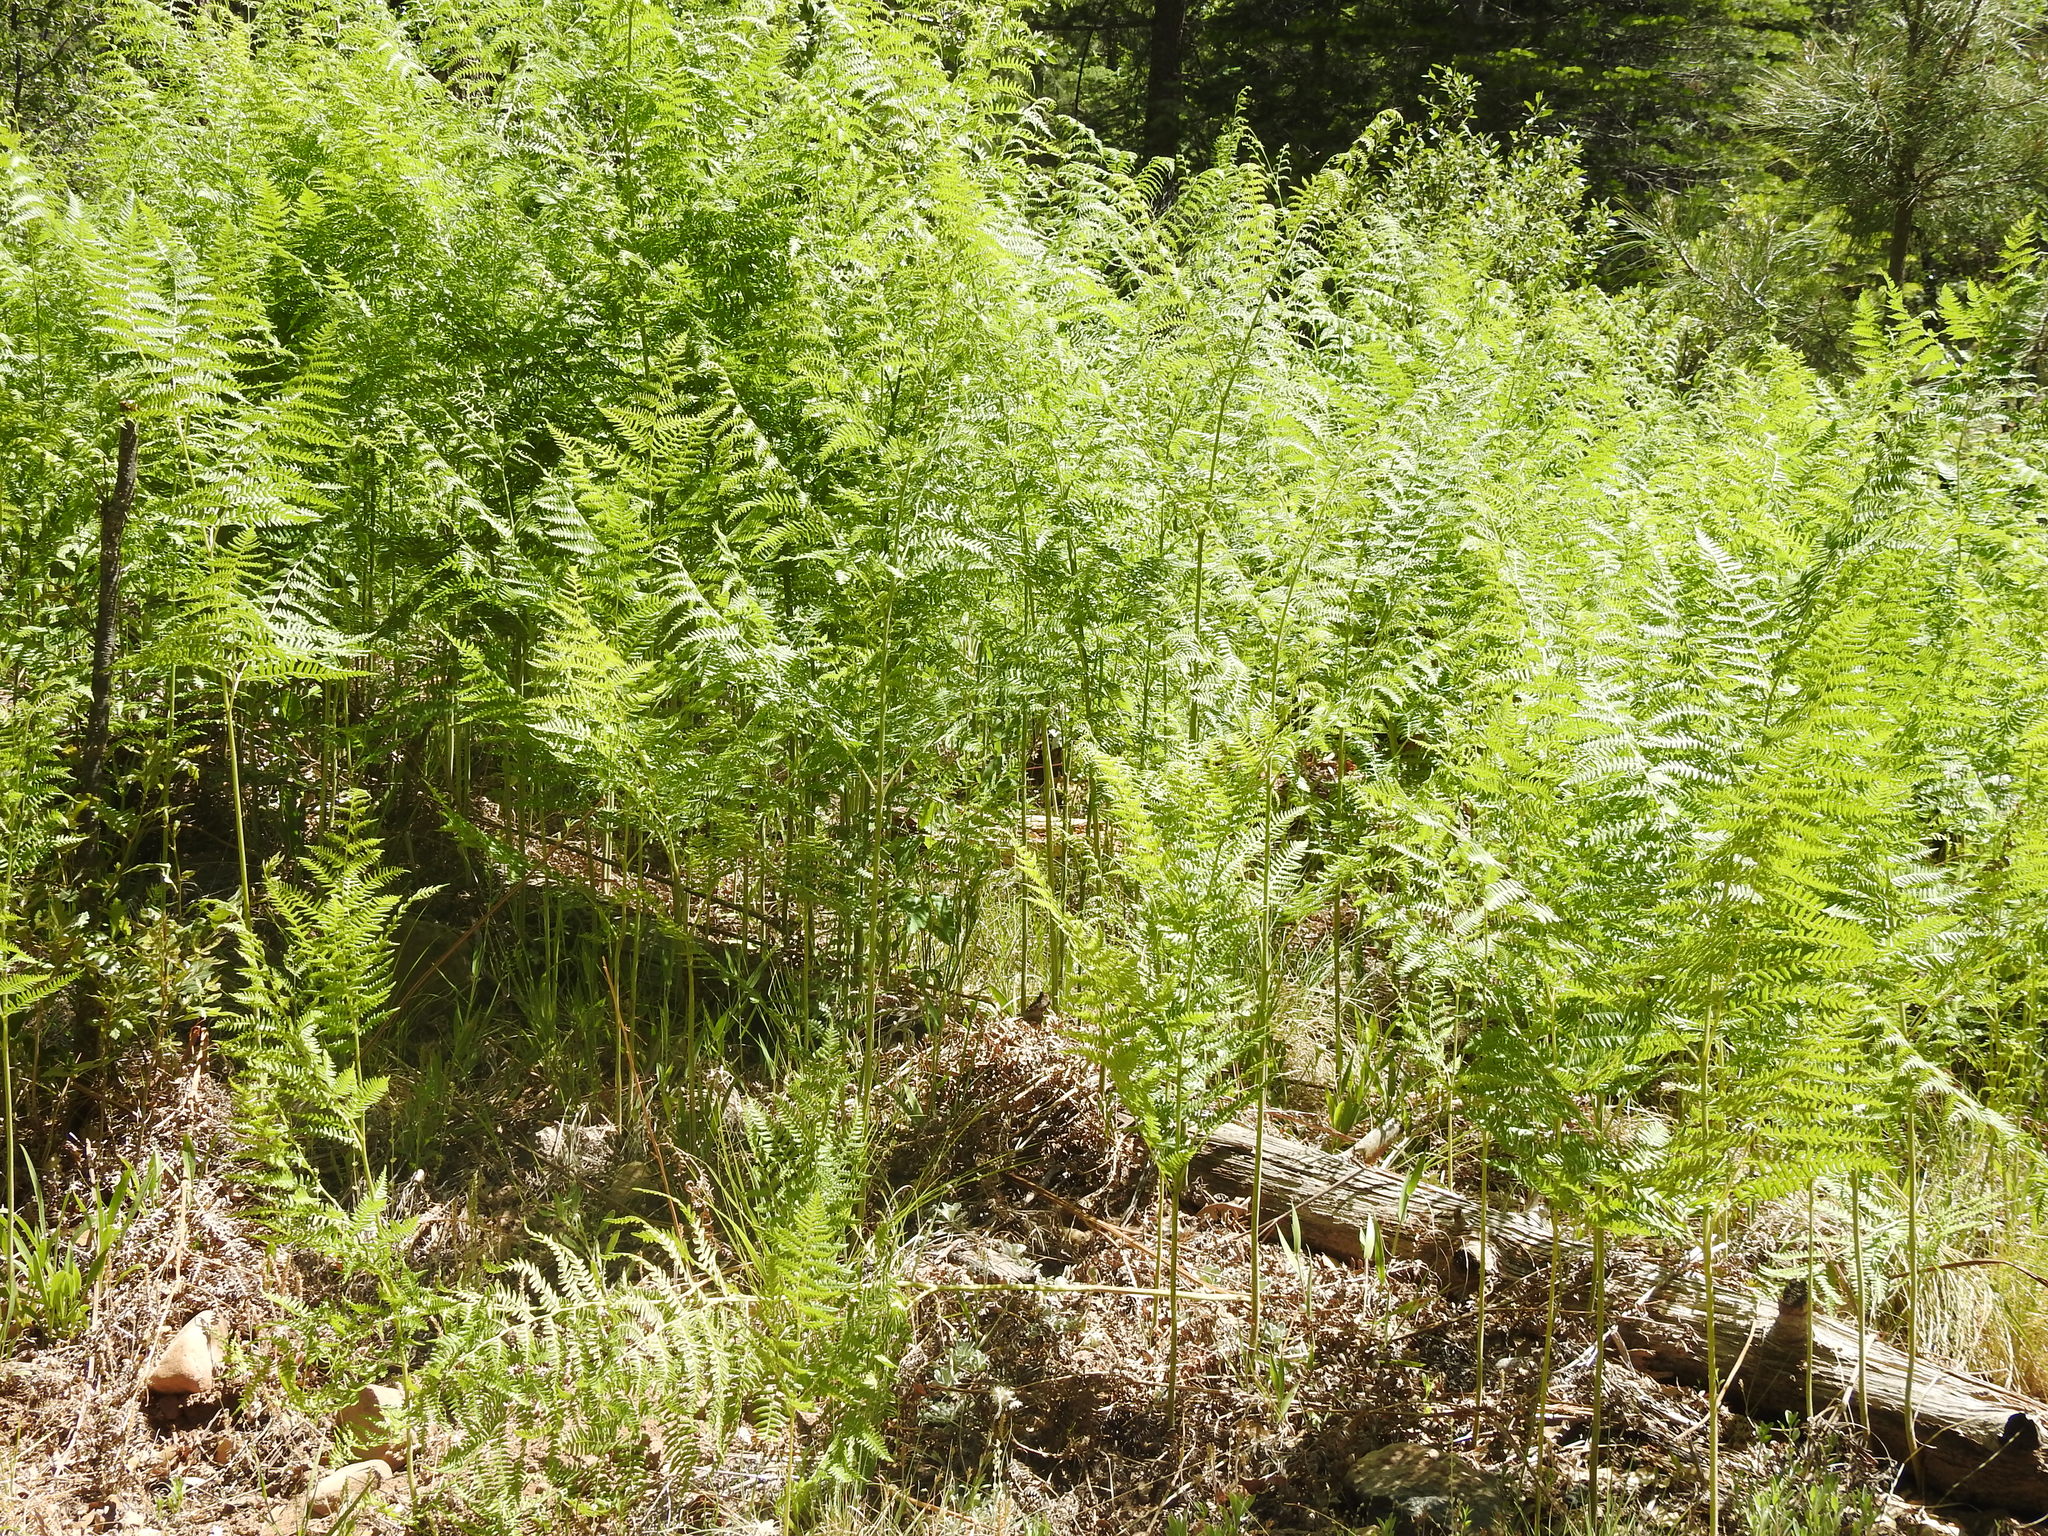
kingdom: Plantae
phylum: Tracheophyta
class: Polypodiopsida
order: Polypodiales
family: Dennstaedtiaceae
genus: Pteridium
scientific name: Pteridium aquilinum
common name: Bracken
